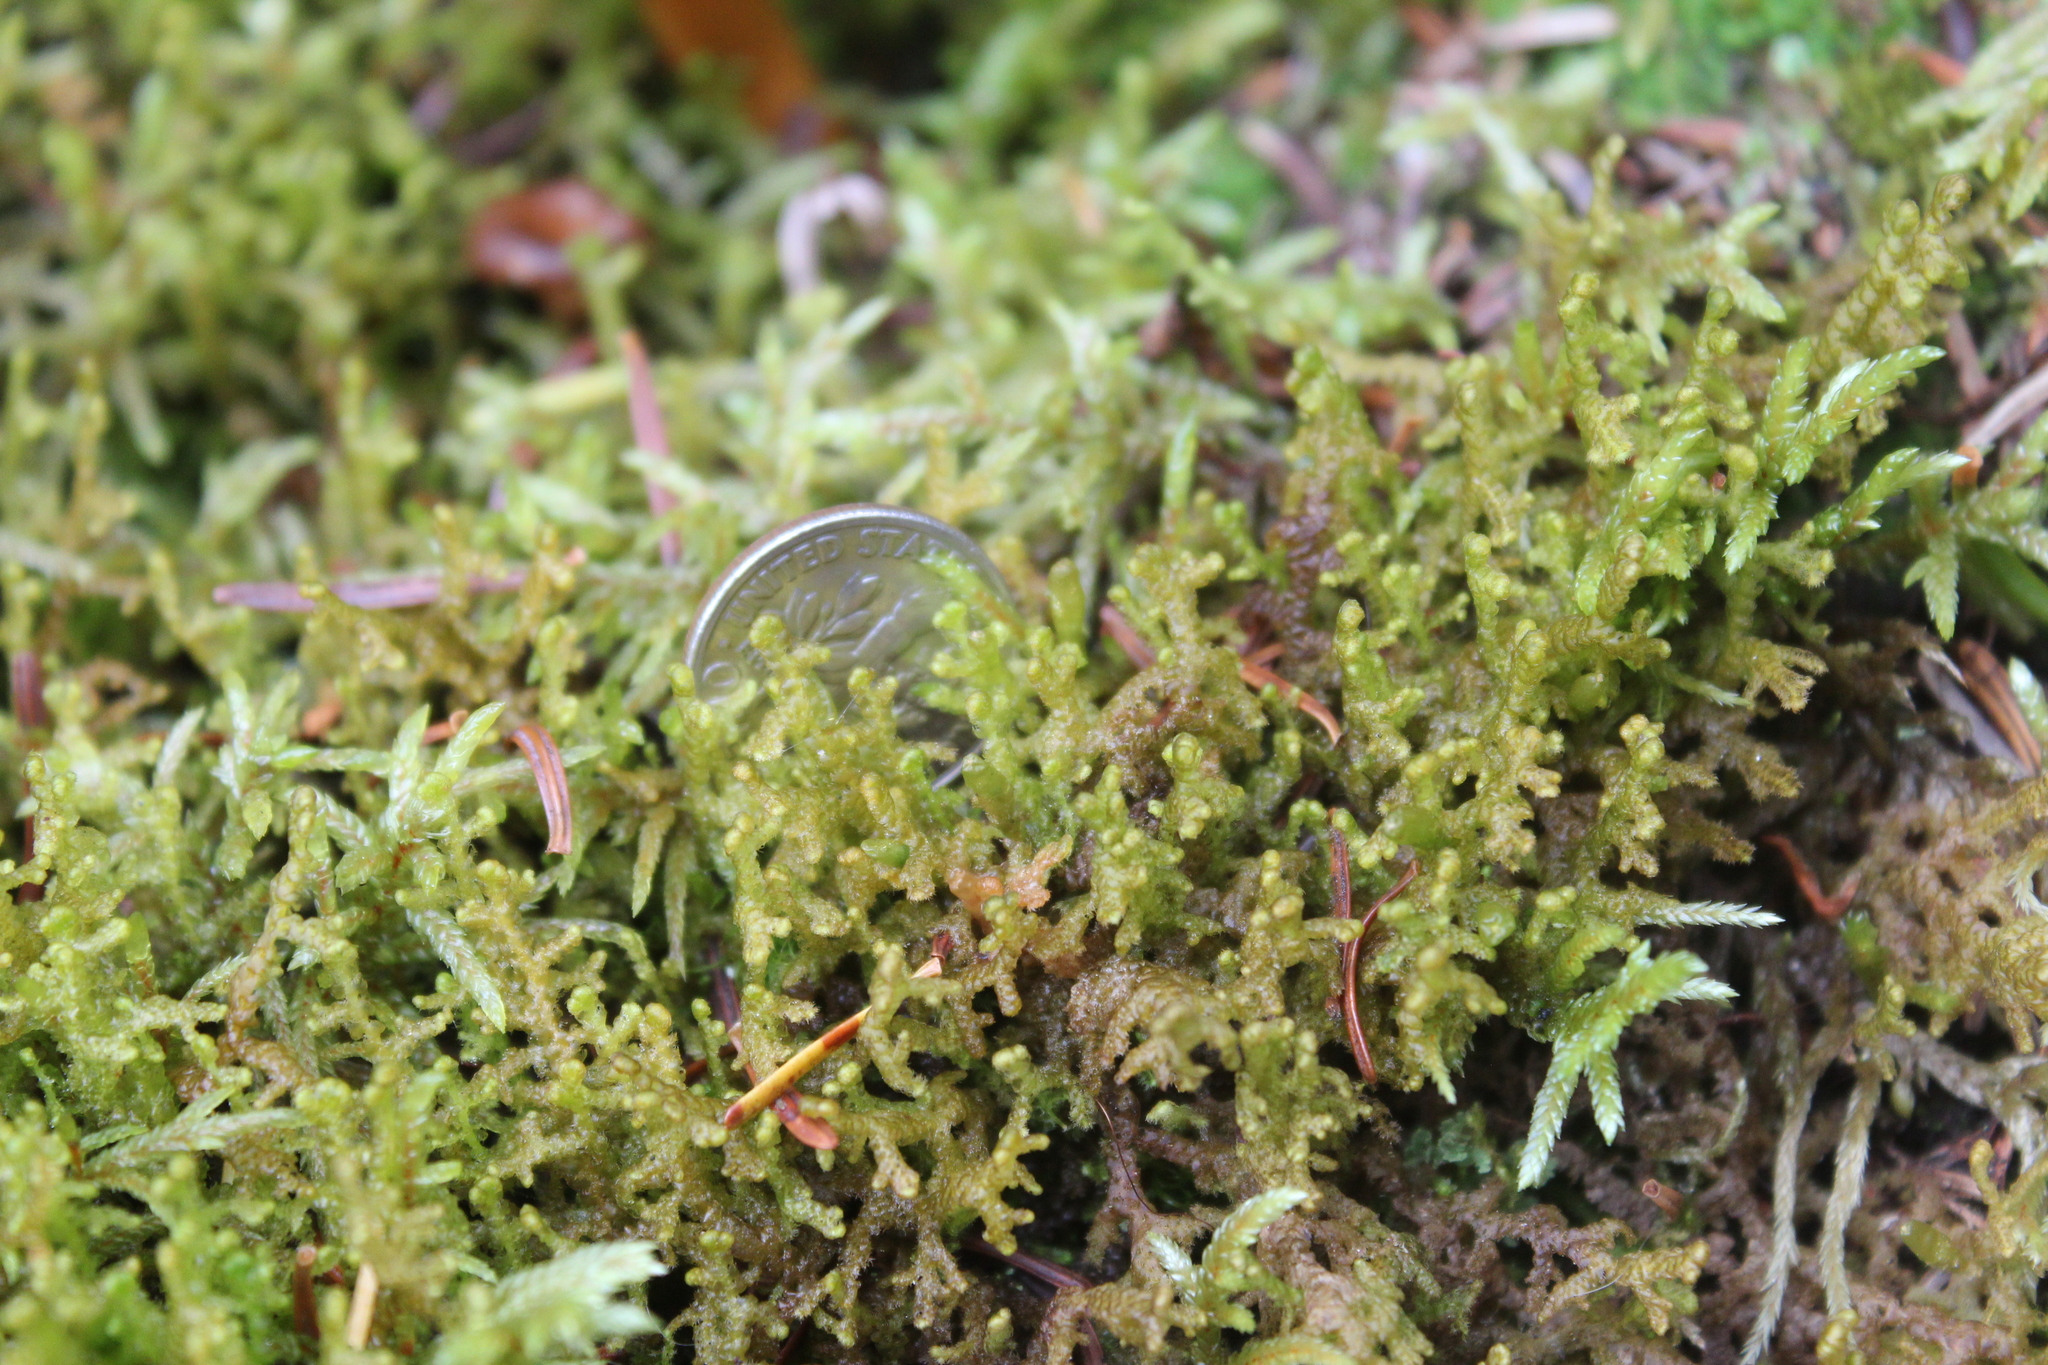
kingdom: Plantae
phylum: Marchantiophyta
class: Jungermanniopsida
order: Ptilidiales
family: Ptilidiaceae
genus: Ptilidium
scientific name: Ptilidium ciliare
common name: Ciliate fringewort
